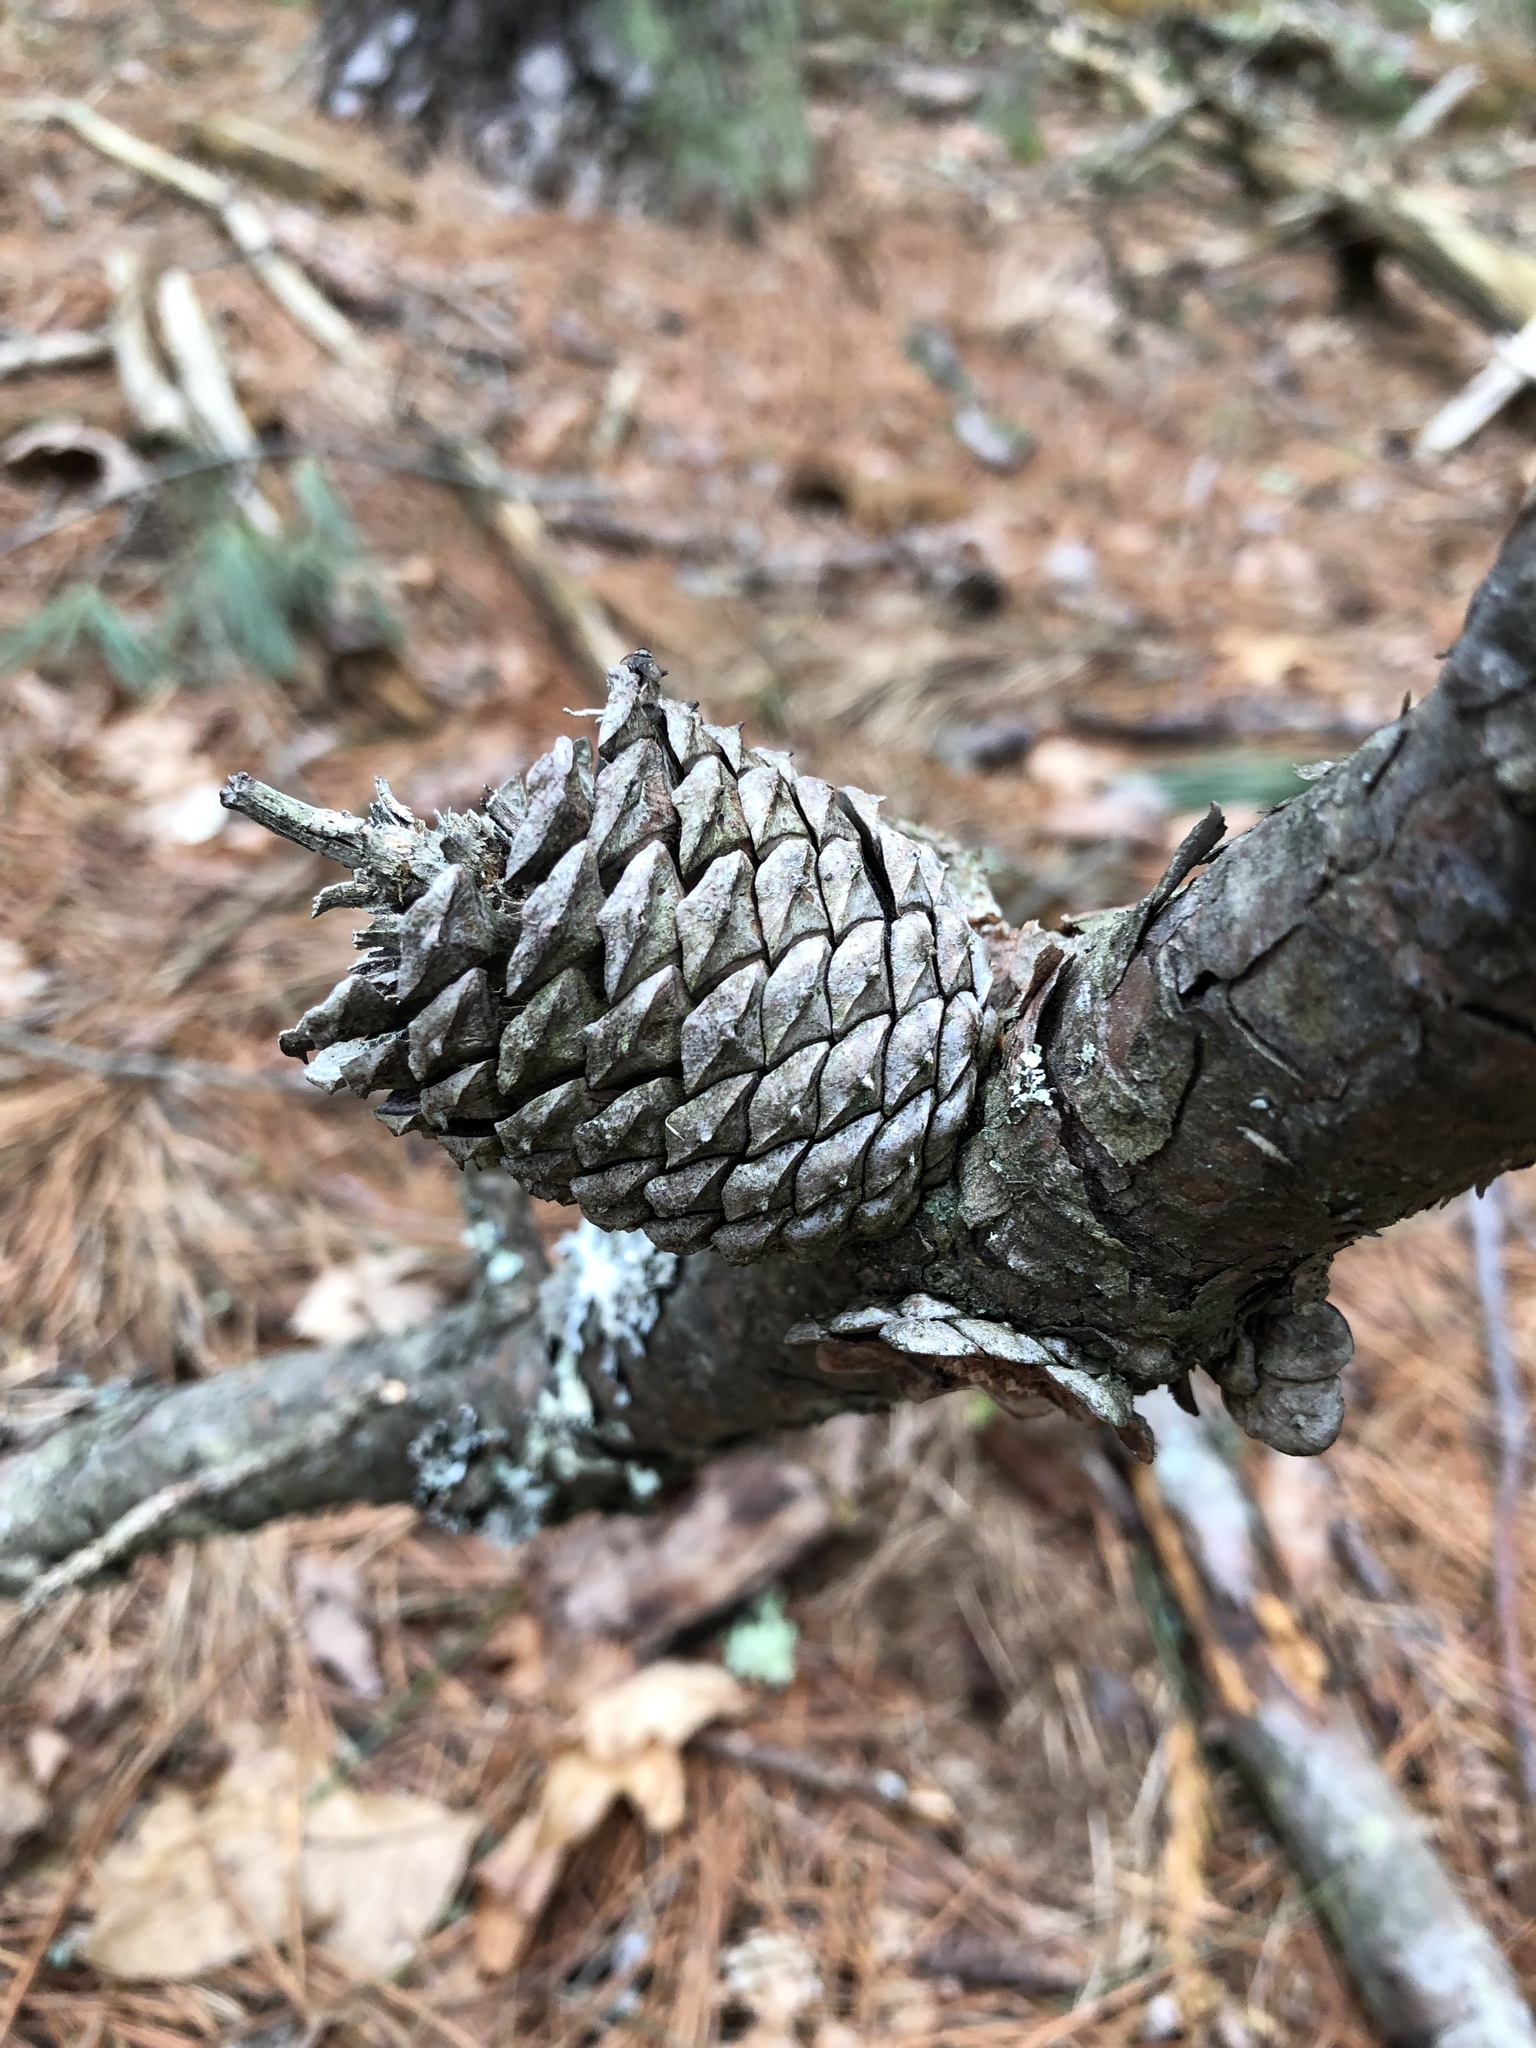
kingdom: Plantae
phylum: Tracheophyta
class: Pinopsida
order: Pinales
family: Pinaceae
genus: Pinus
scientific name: Pinus rigida
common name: Pitch pine
